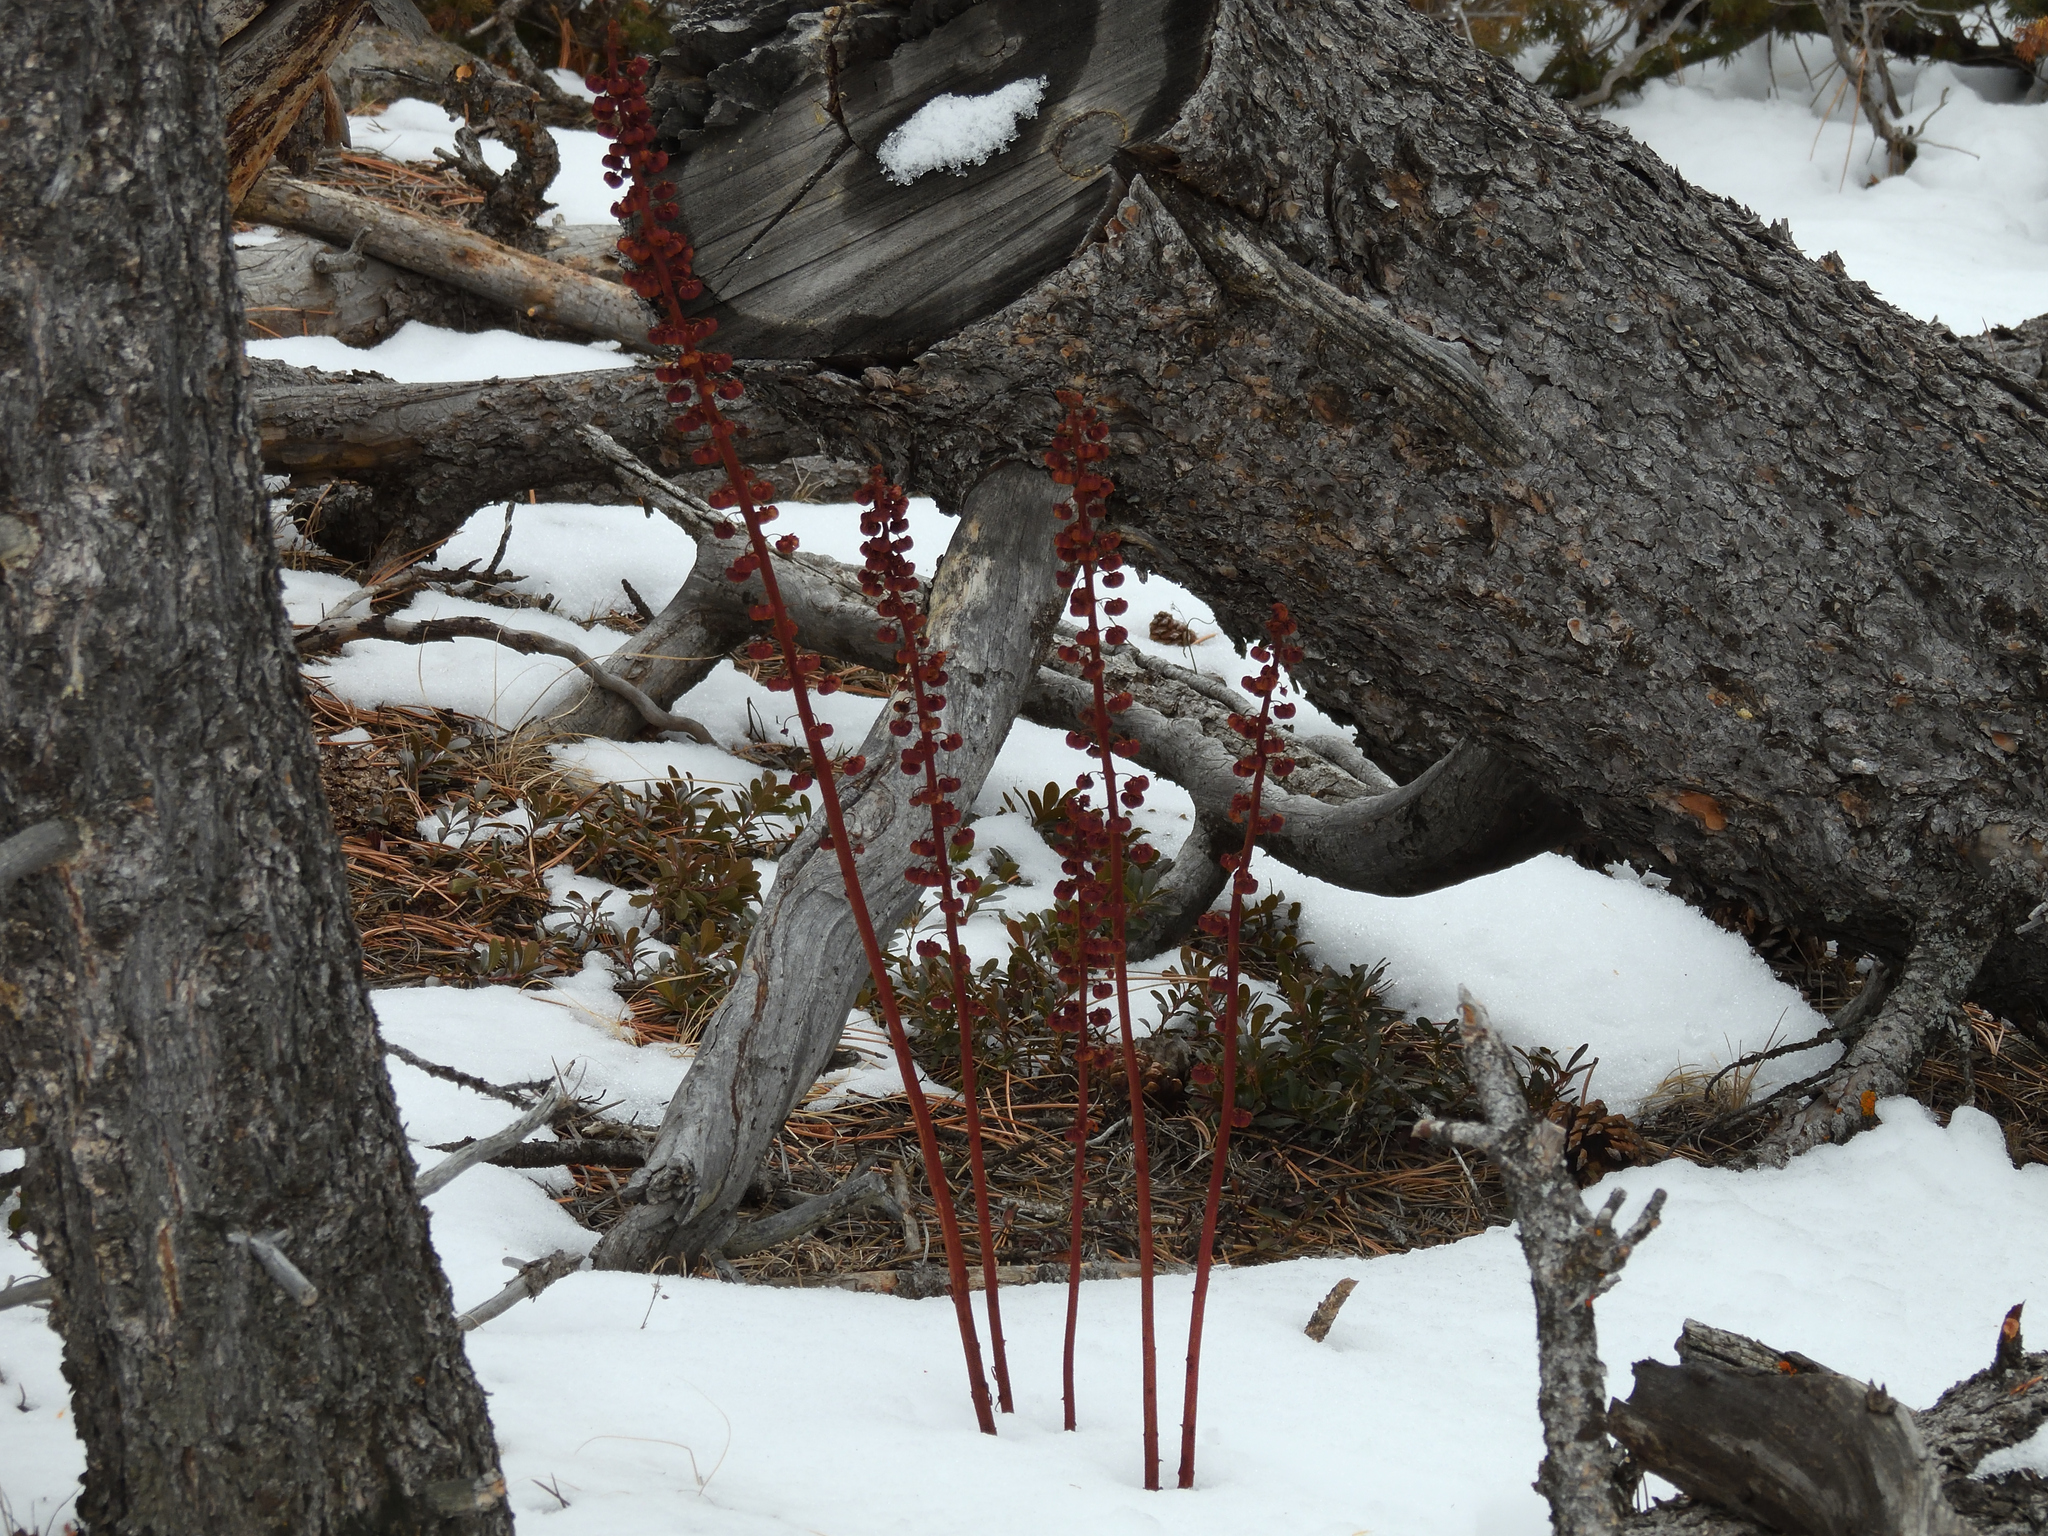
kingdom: Plantae
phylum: Tracheophyta
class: Magnoliopsida
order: Ericales
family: Ericaceae
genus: Pterospora
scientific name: Pterospora andromedea
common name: Giant bird's-nest
